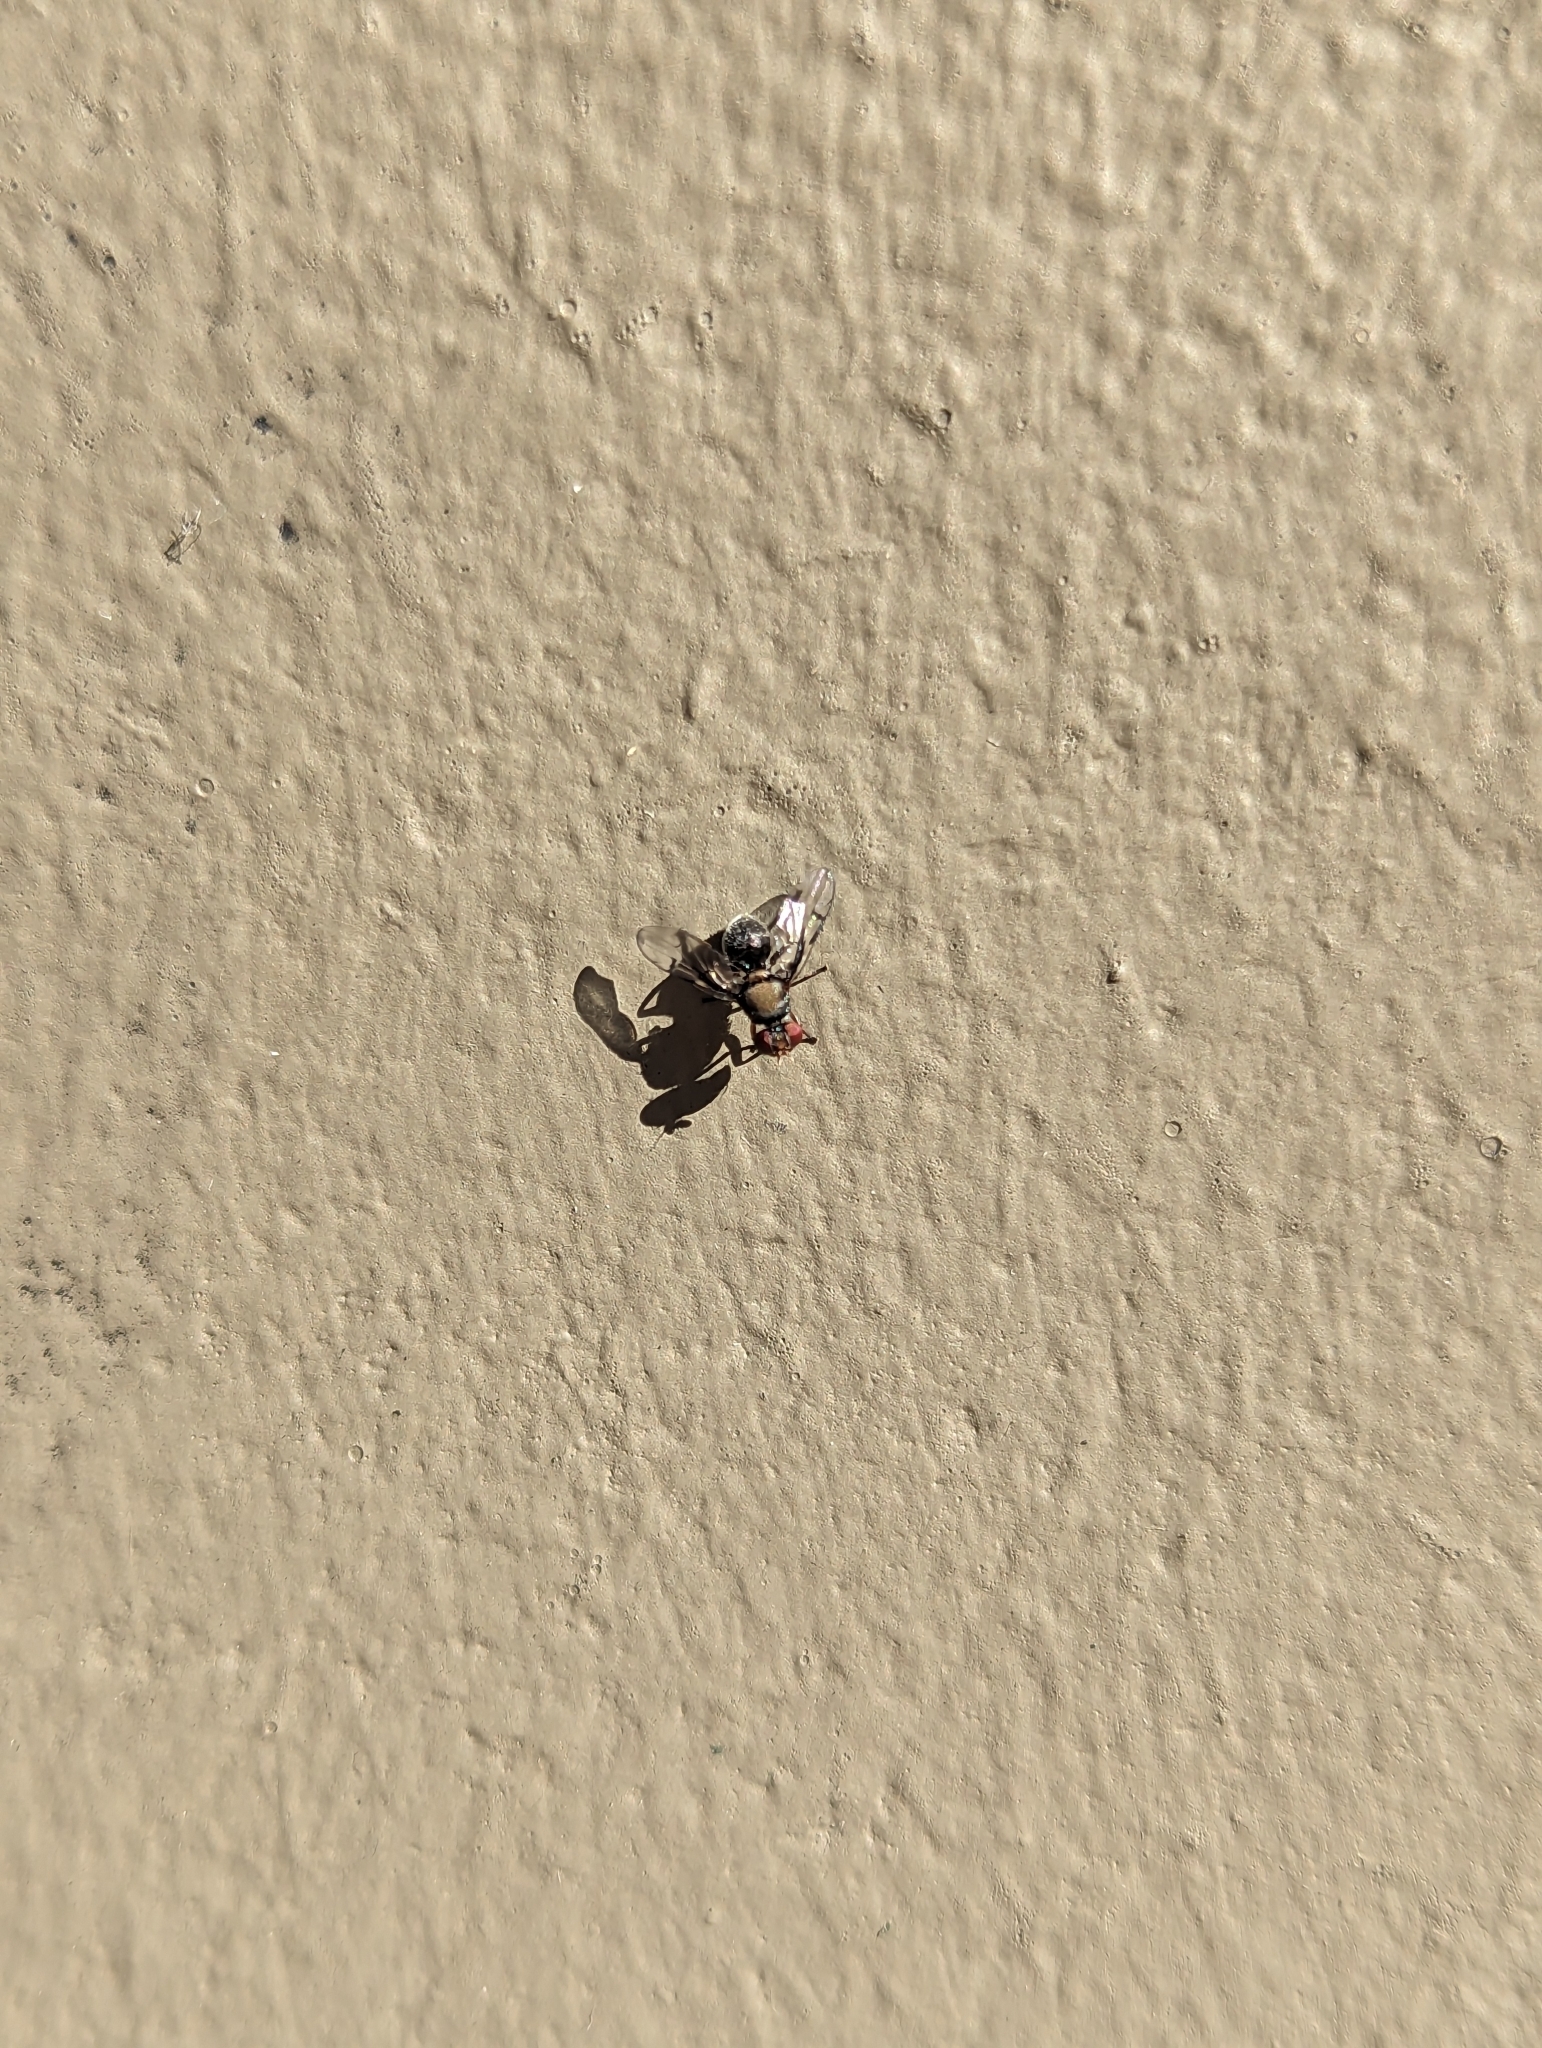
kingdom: Animalia
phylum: Arthropoda
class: Insecta
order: Diptera
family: Platystomatidae
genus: Pogonortalis
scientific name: Pogonortalis doclea
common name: Boatman fly
